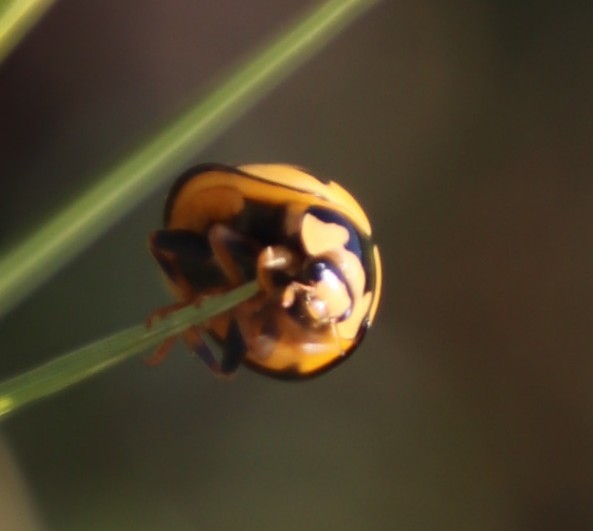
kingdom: Animalia
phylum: Arthropoda
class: Insecta
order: Coleoptera
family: Coccinellidae
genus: Cheilomenes
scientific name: Cheilomenes lunata
